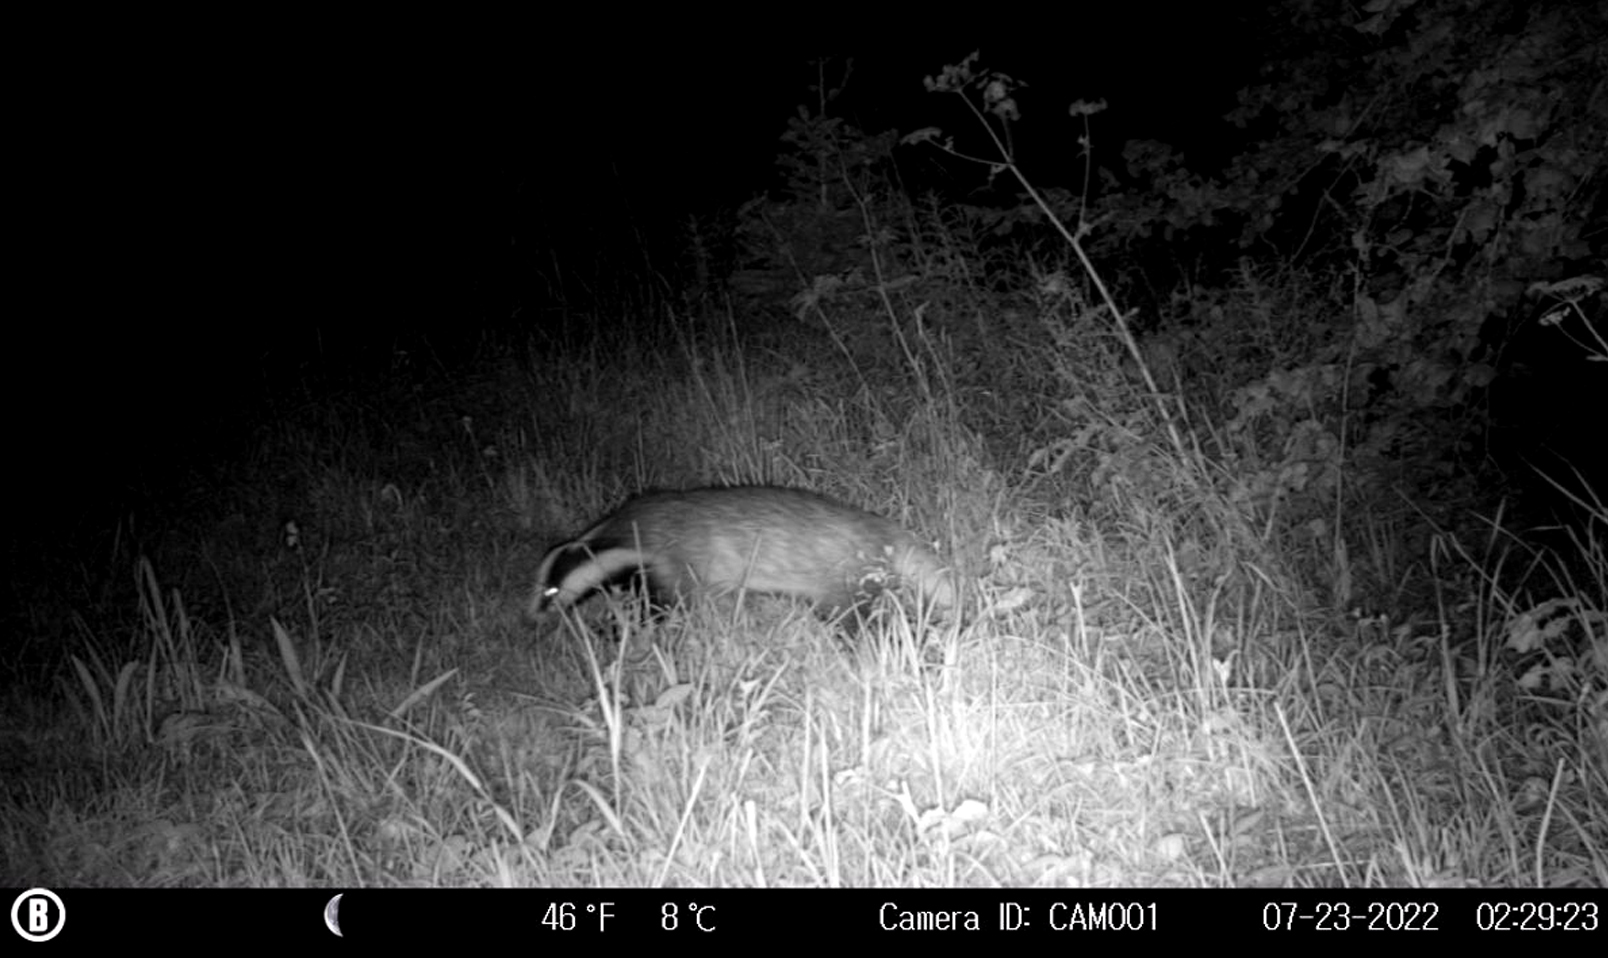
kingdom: Animalia
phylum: Chordata
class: Mammalia
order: Carnivora
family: Mustelidae
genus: Meles
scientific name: Meles meles
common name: Eurasian badger
